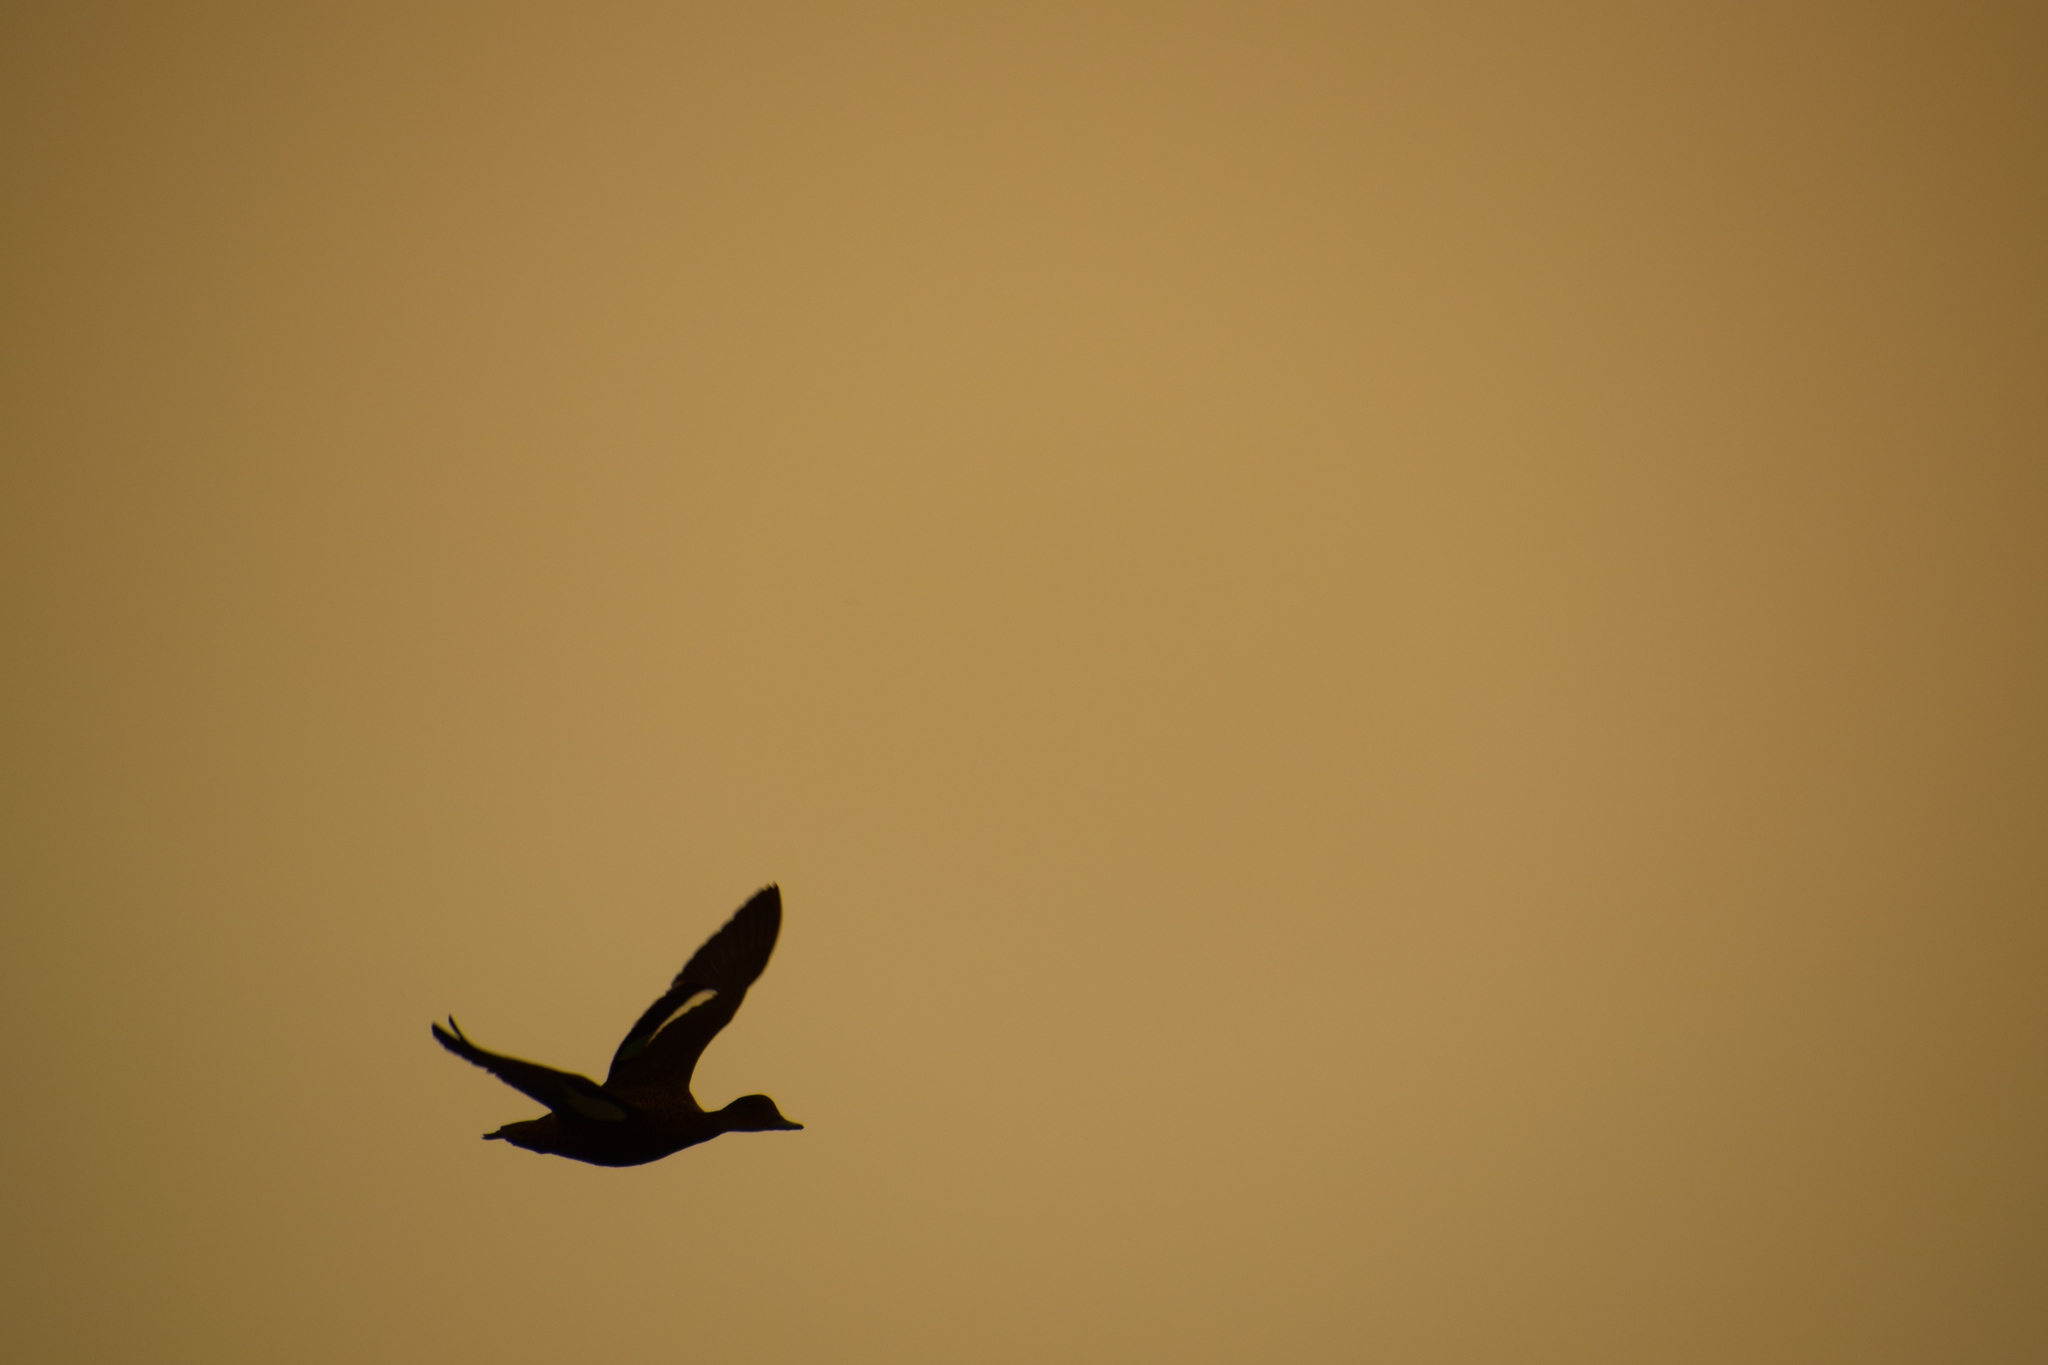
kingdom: Animalia
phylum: Chordata
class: Aves
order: Anseriformes
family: Anatidae
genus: Anas
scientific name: Anas castanea
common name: Chestnut teal
